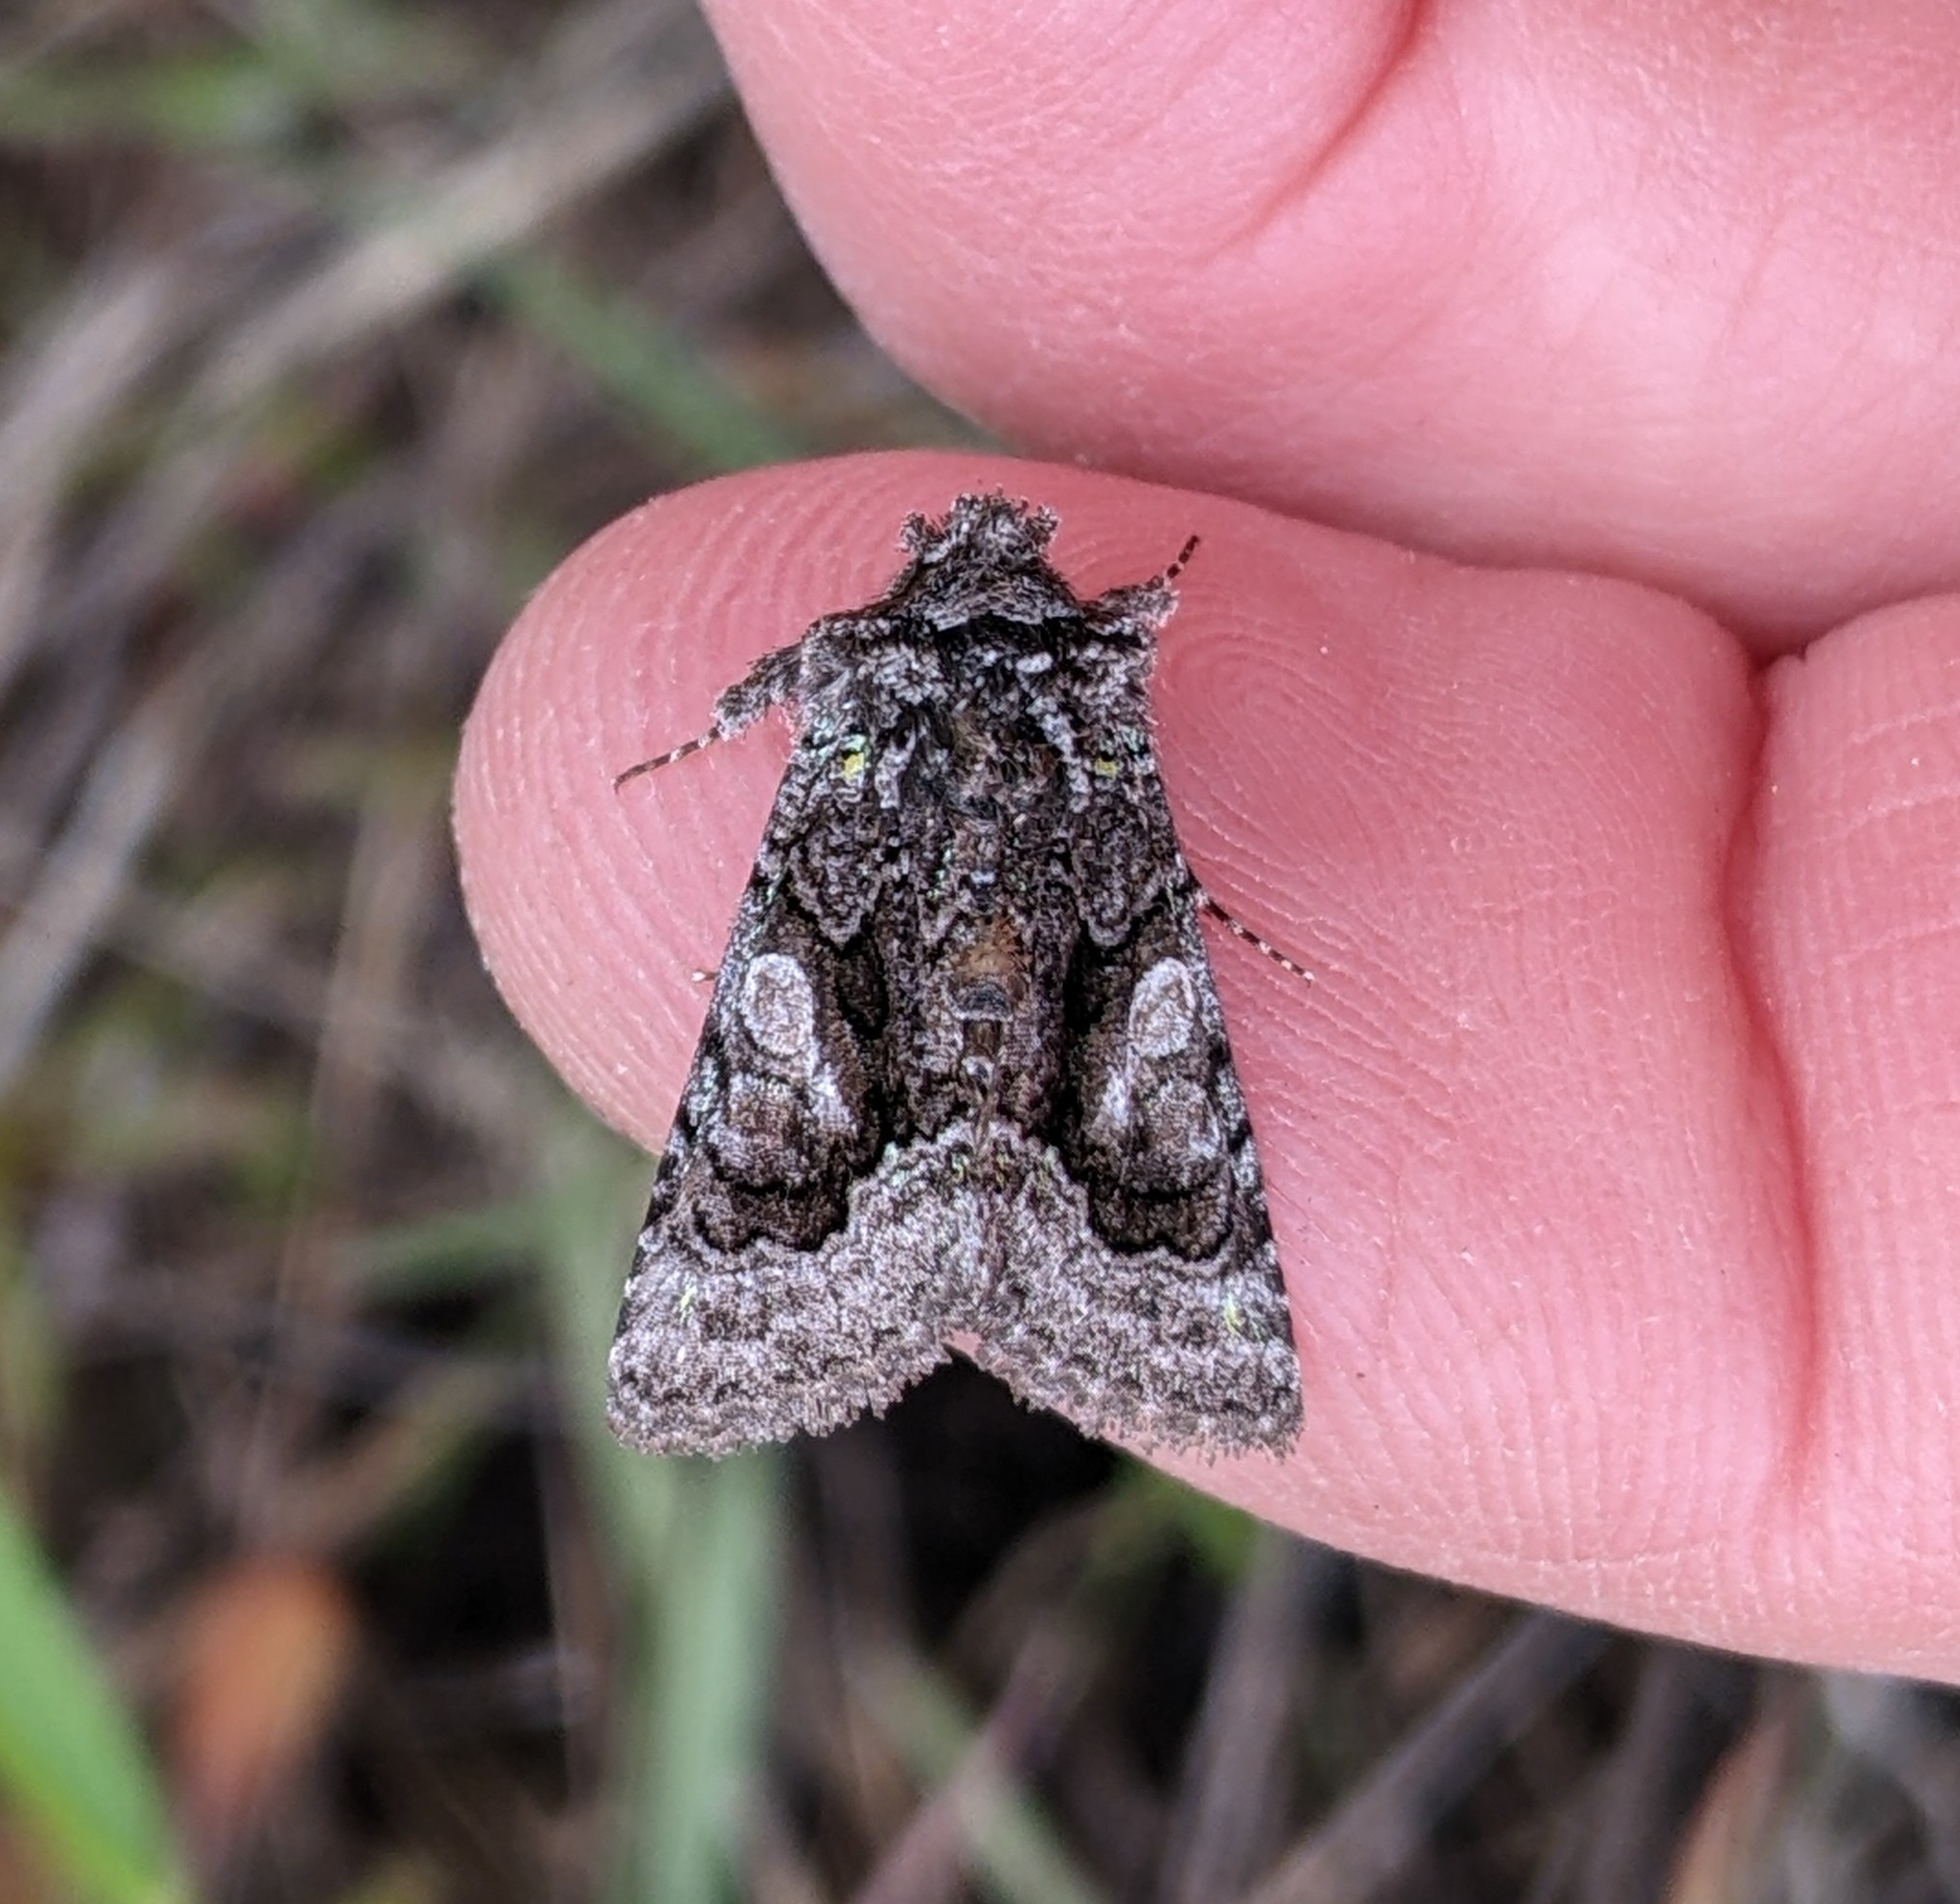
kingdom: Animalia
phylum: Arthropoda
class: Insecta
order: Lepidoptera
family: Noctuidae
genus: Behrensia
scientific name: Behrensia conchiformis
